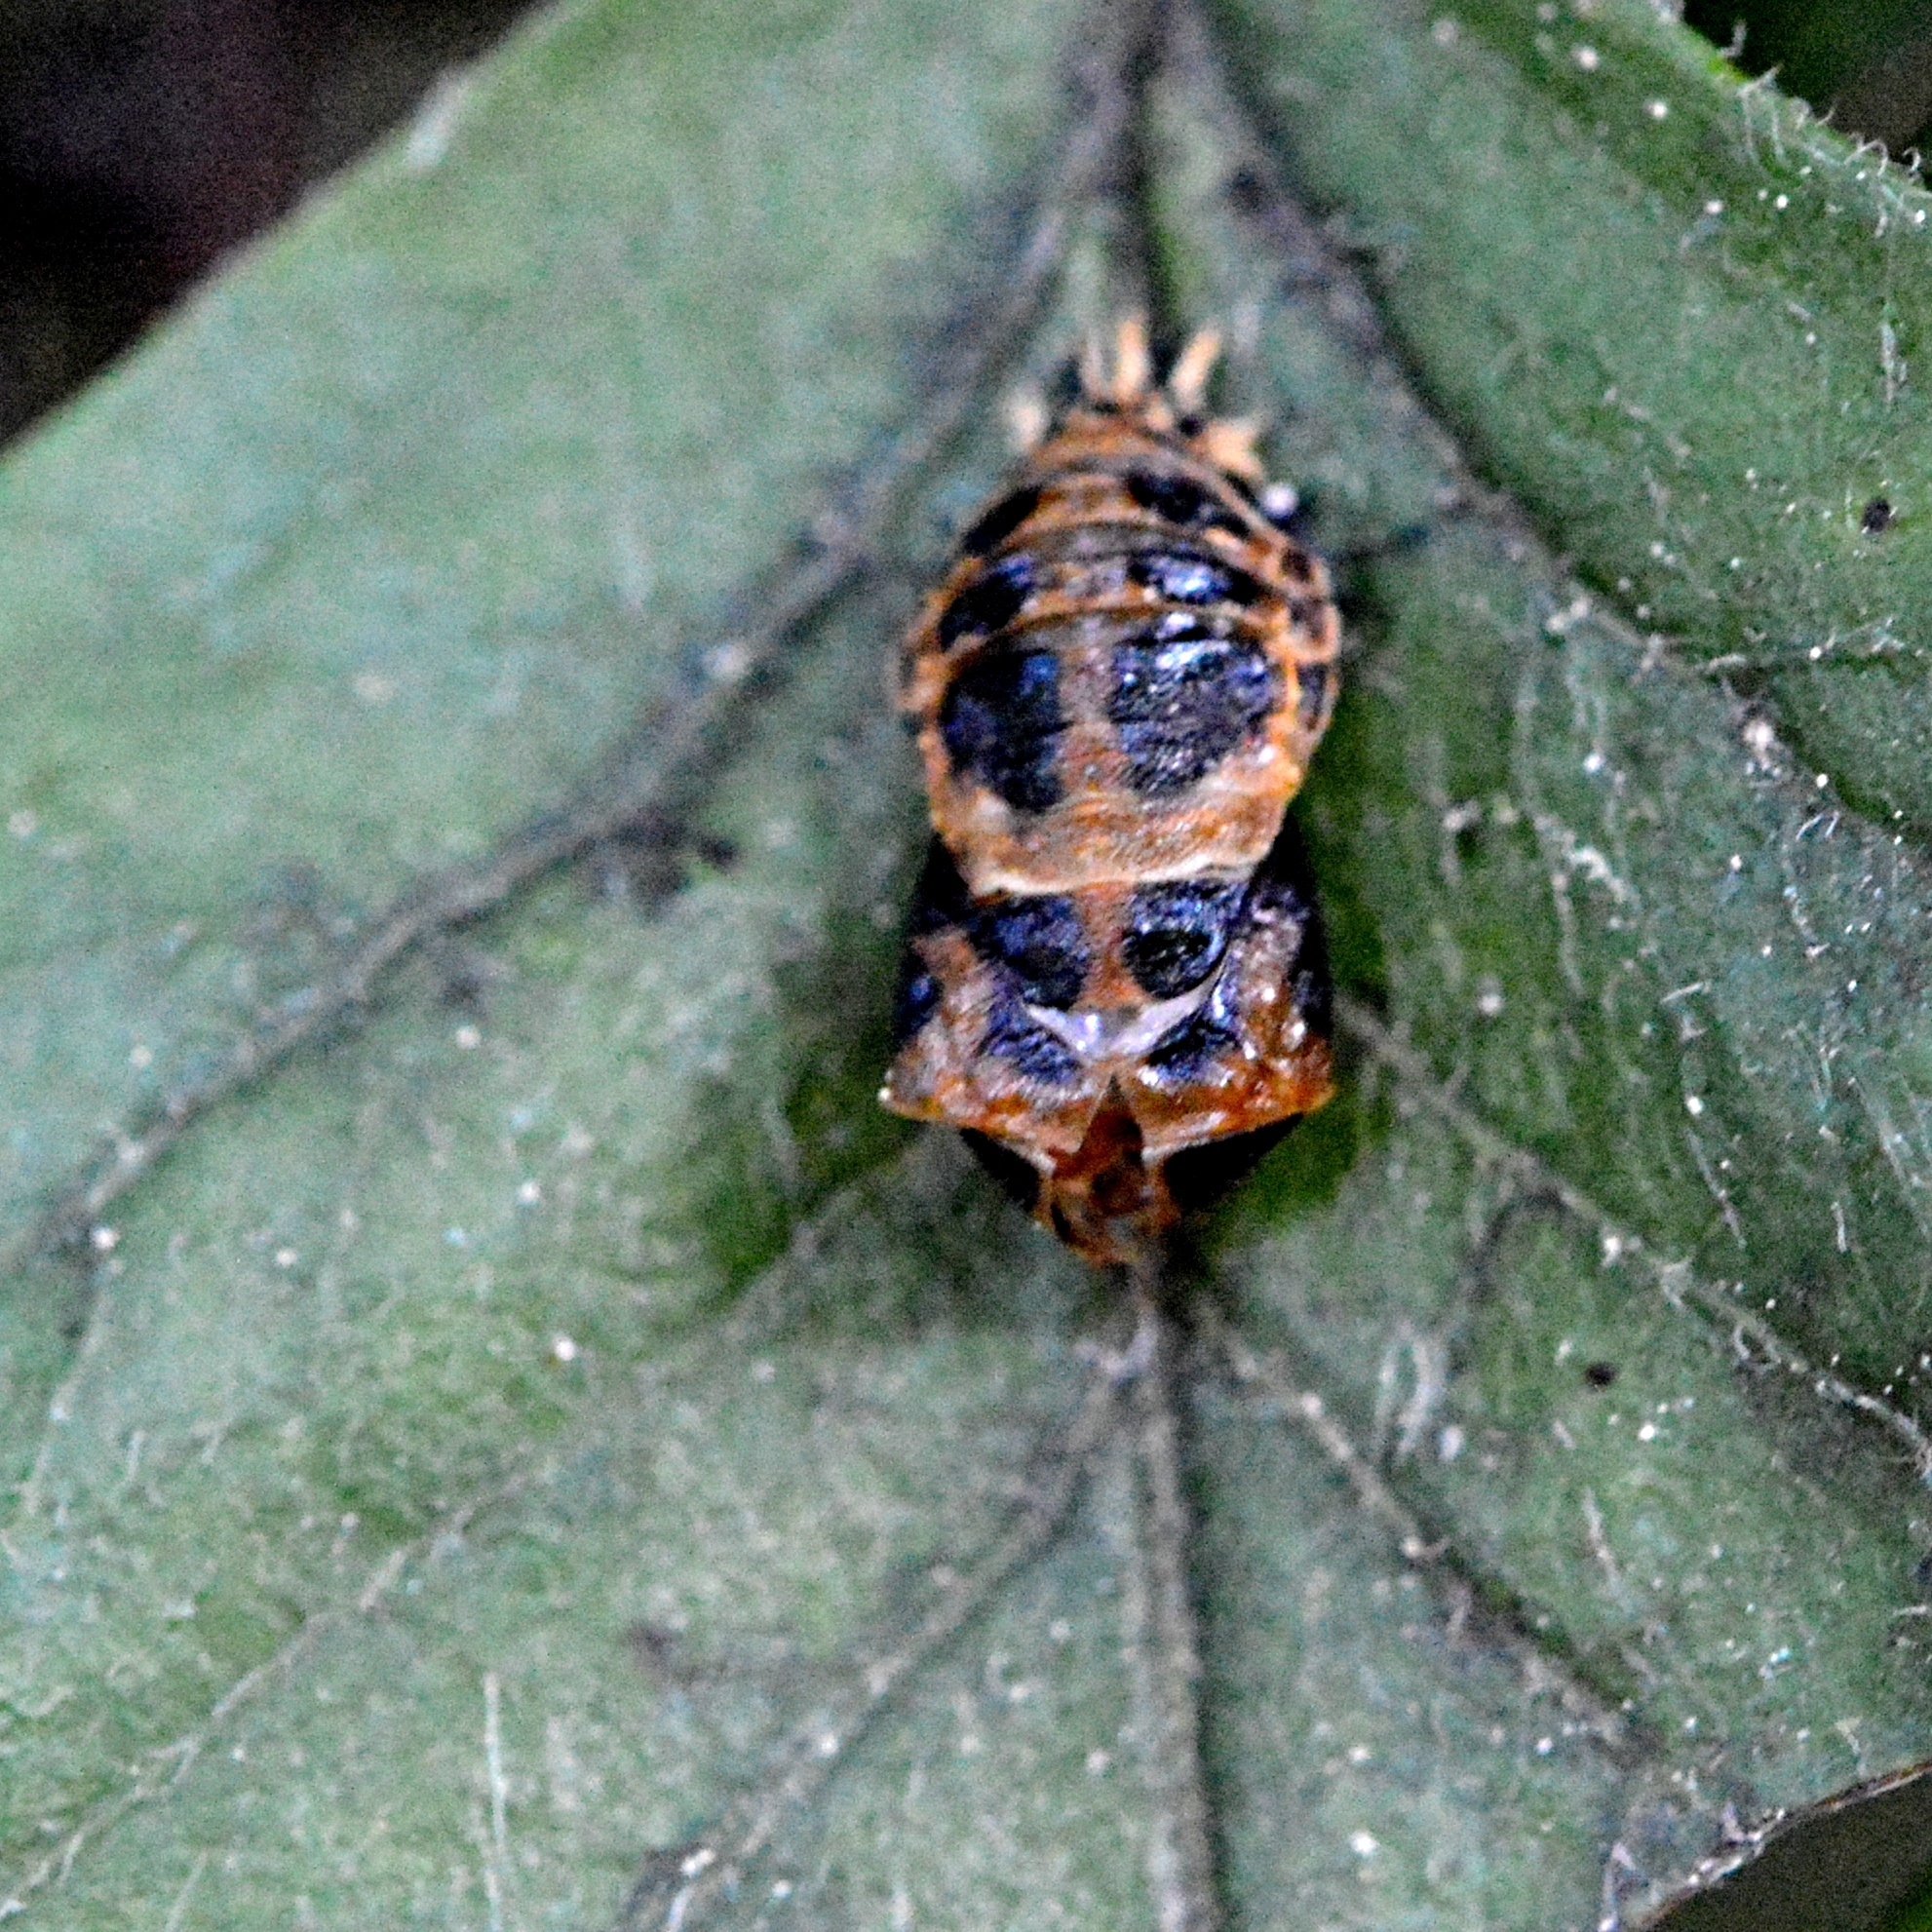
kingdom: Animalia
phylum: Arthropoda
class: Insecta
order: Coleoptera
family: Coccinellidae
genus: Harmonia
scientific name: Harmonia axyridis
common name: Harlequin ladybird
